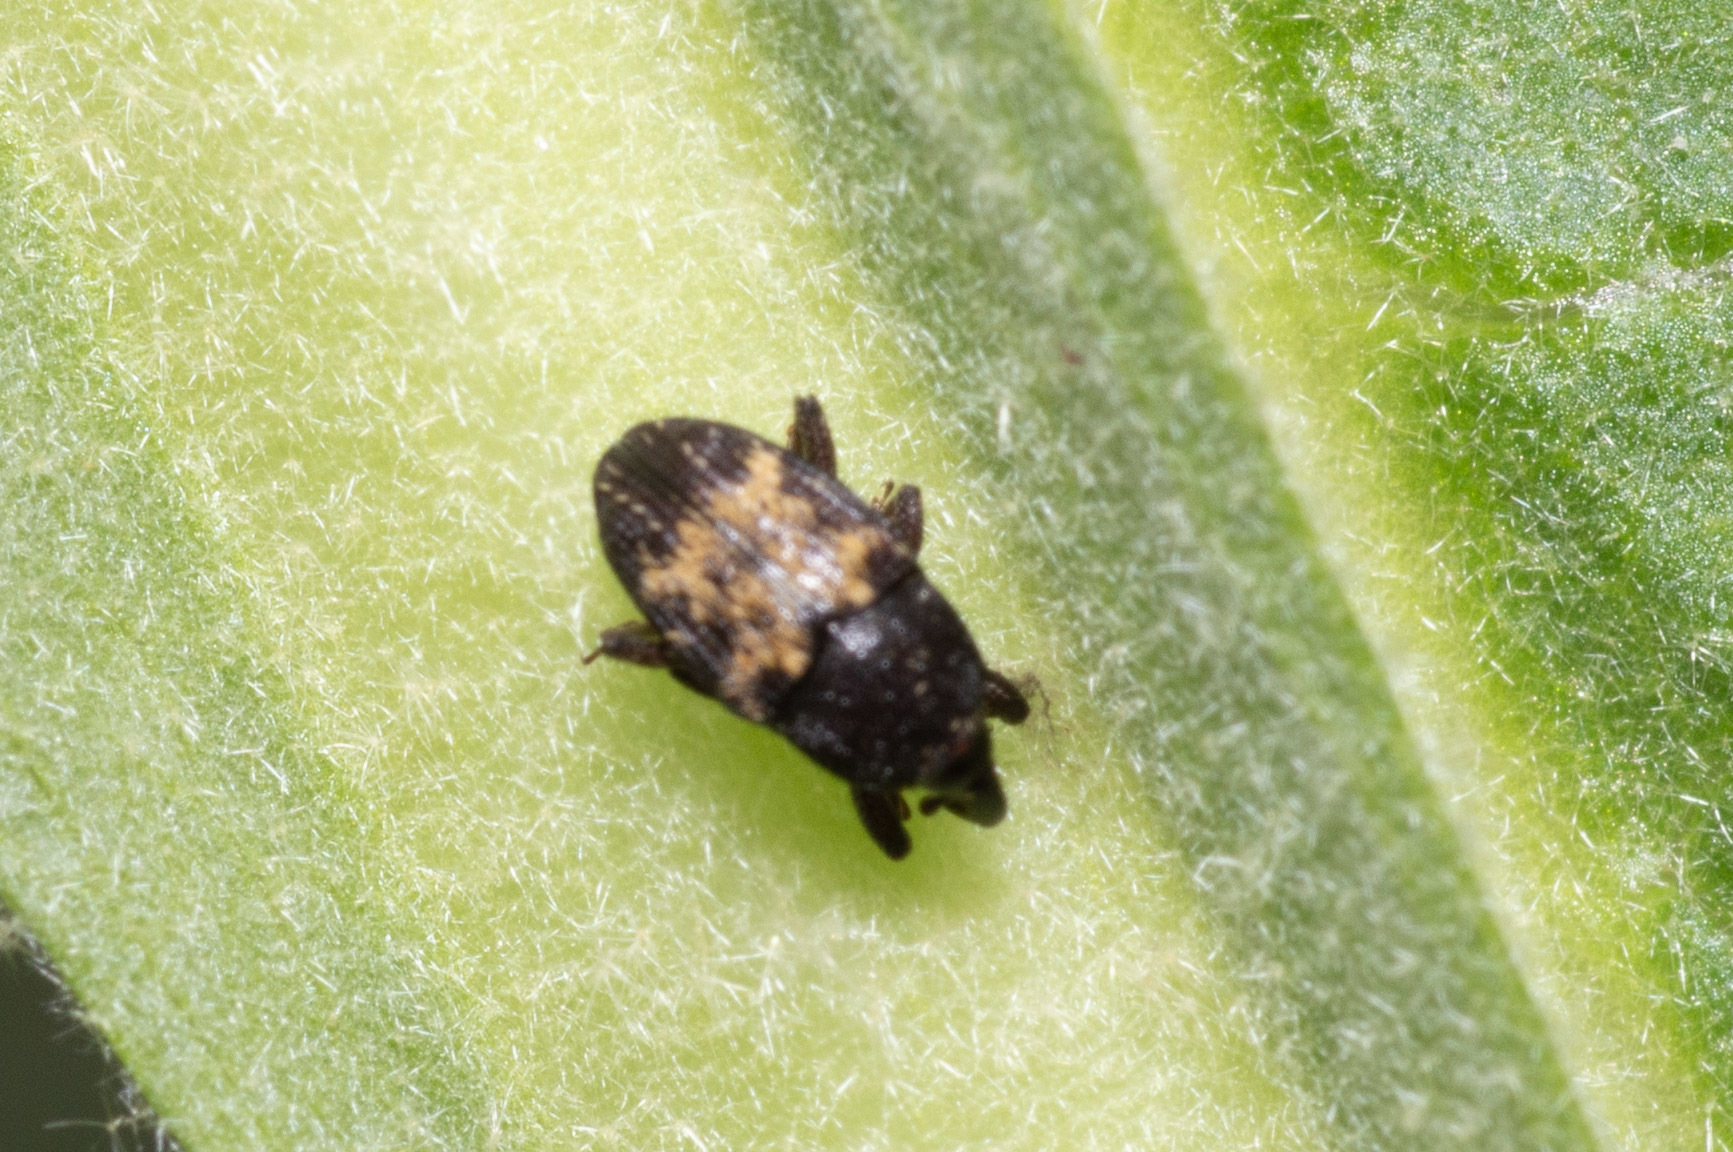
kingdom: Animalia
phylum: Arthropoda
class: Insecta
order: Coleoptera
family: Curculionidae
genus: Glyptobaris
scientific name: Glyptobaris lecontei
